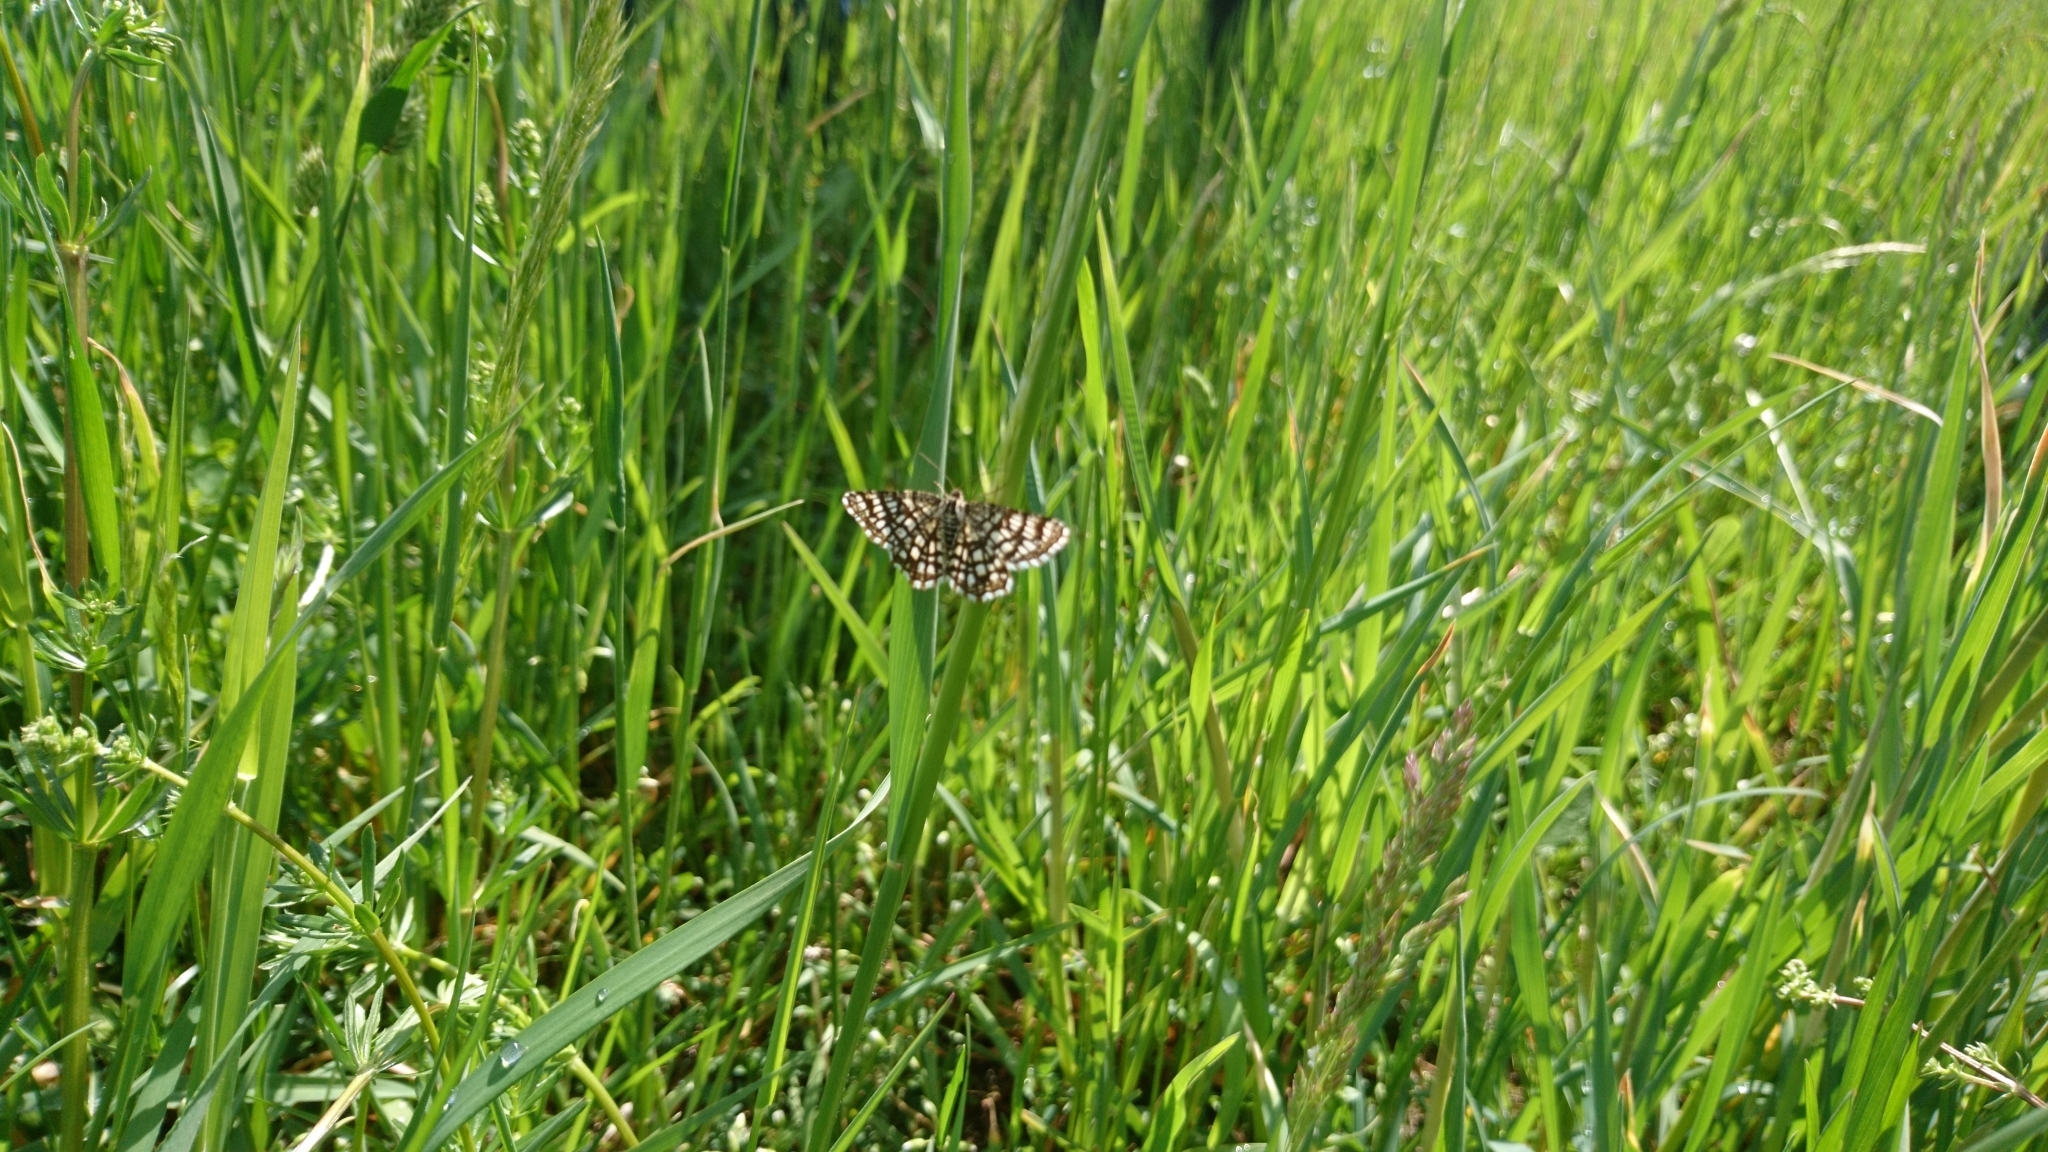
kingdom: Animalia
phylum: Arthropoda
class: Insecta
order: Lepidoptera
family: Geometridae
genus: Chiasmia
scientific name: Chiasmia clathrata
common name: Latticed heath
